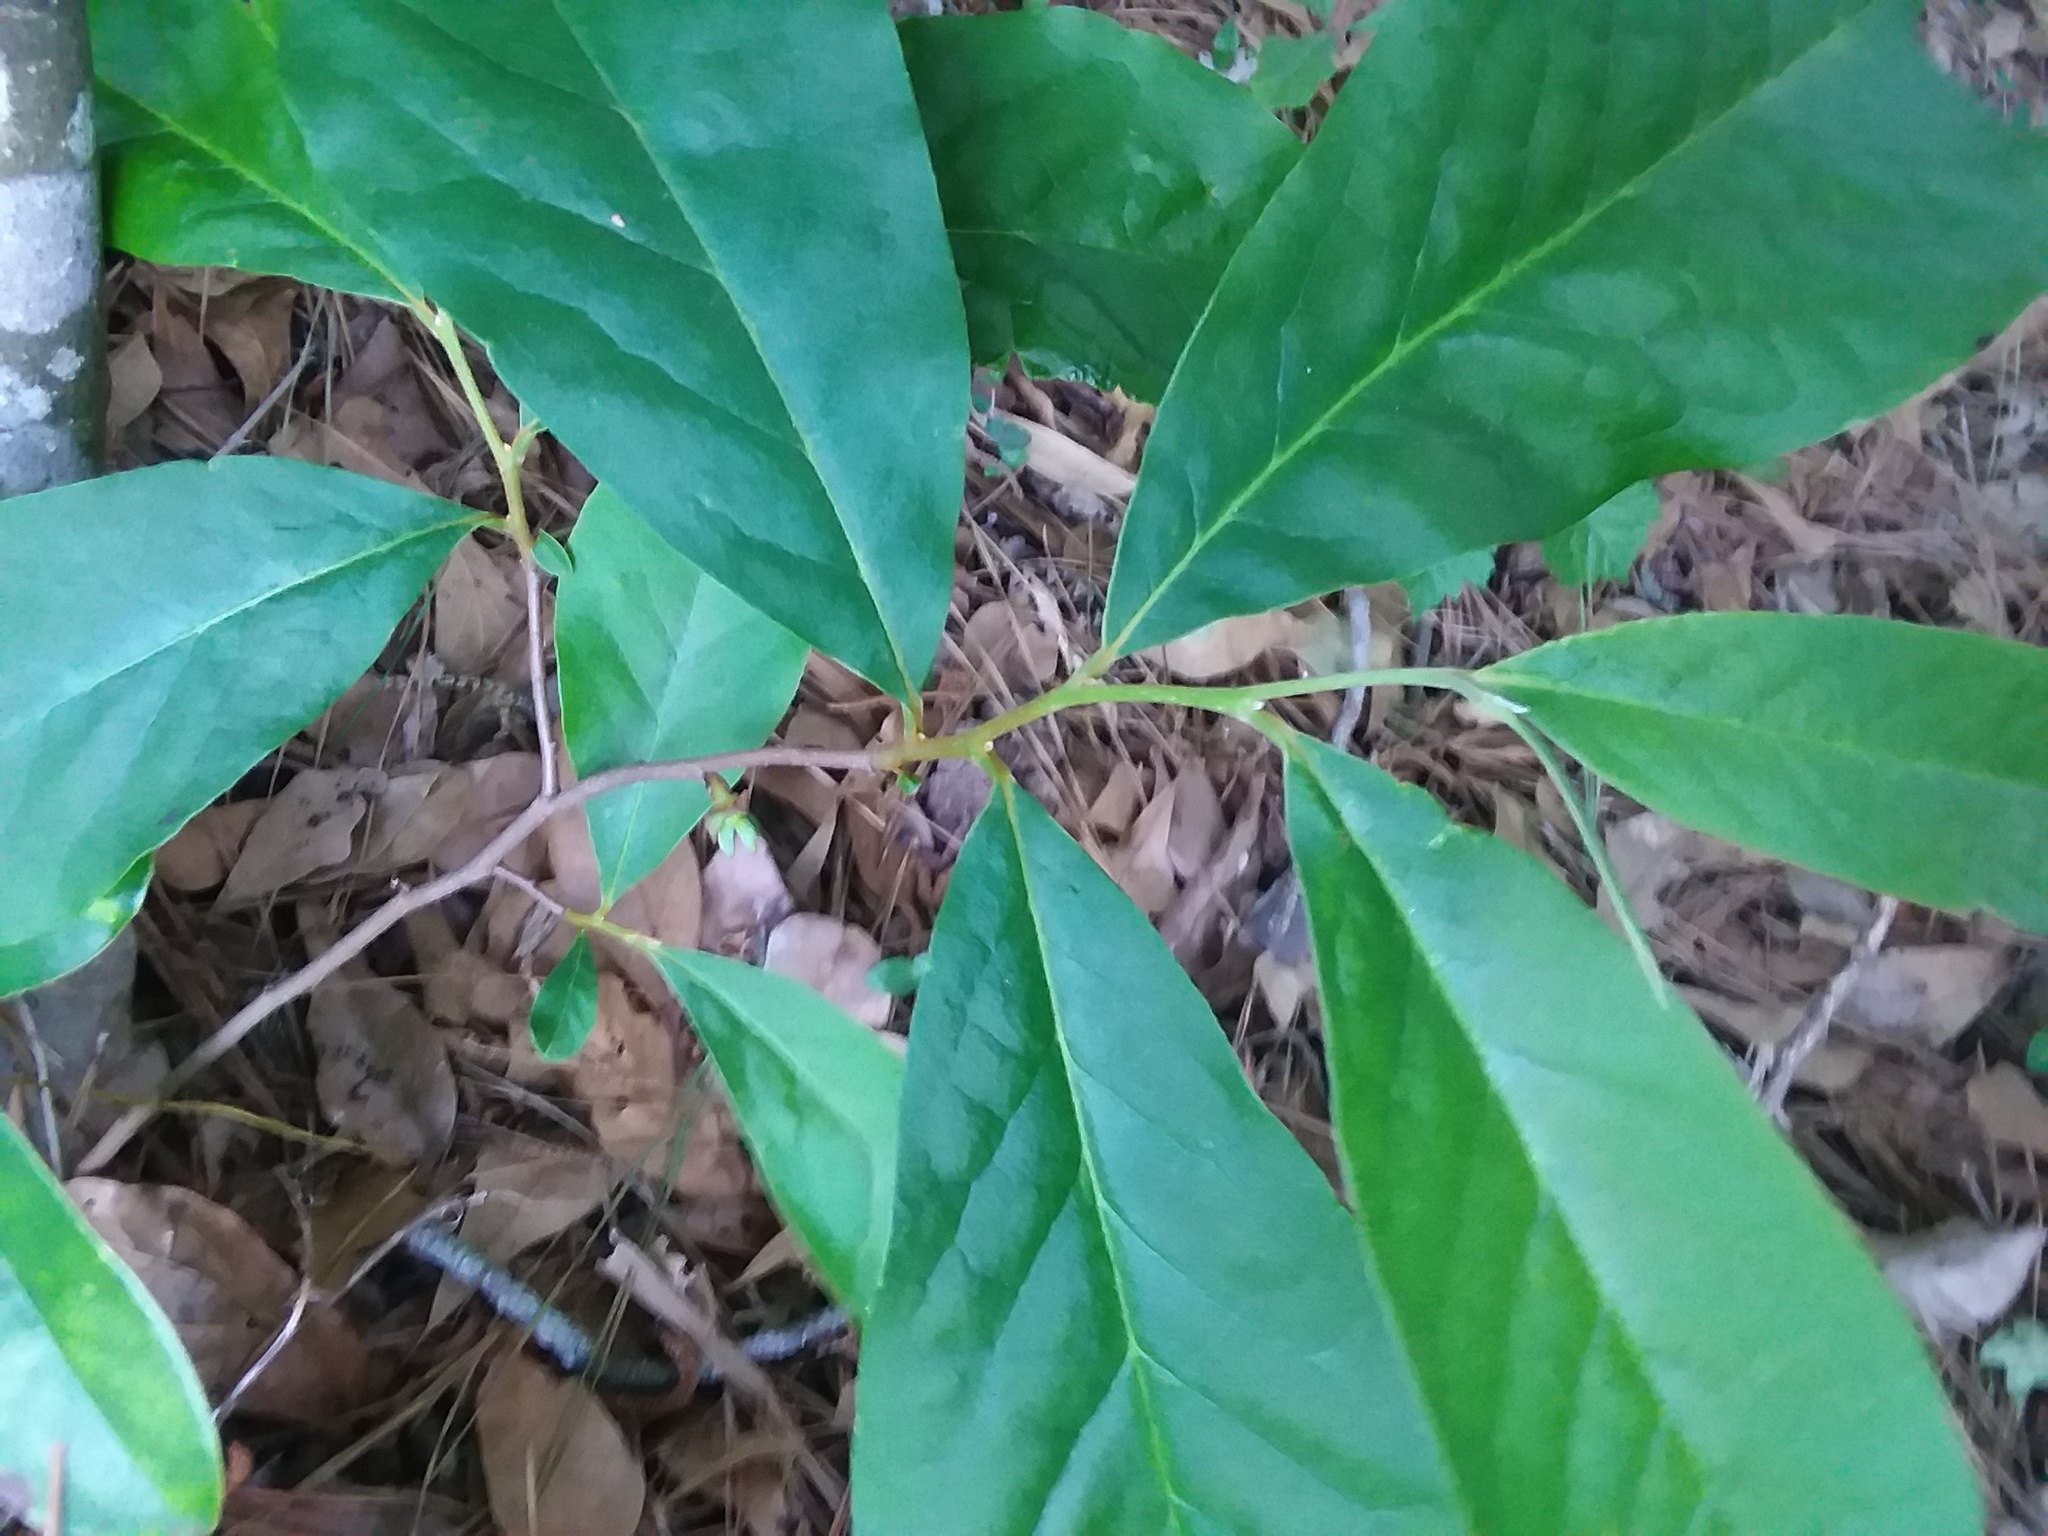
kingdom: Plantae
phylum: Tracheophyta
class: Magnoliopsida
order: Magnoliales
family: Annonaceae
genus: Asimina
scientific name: Asimina parviflora
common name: Dwarf pawpaw
